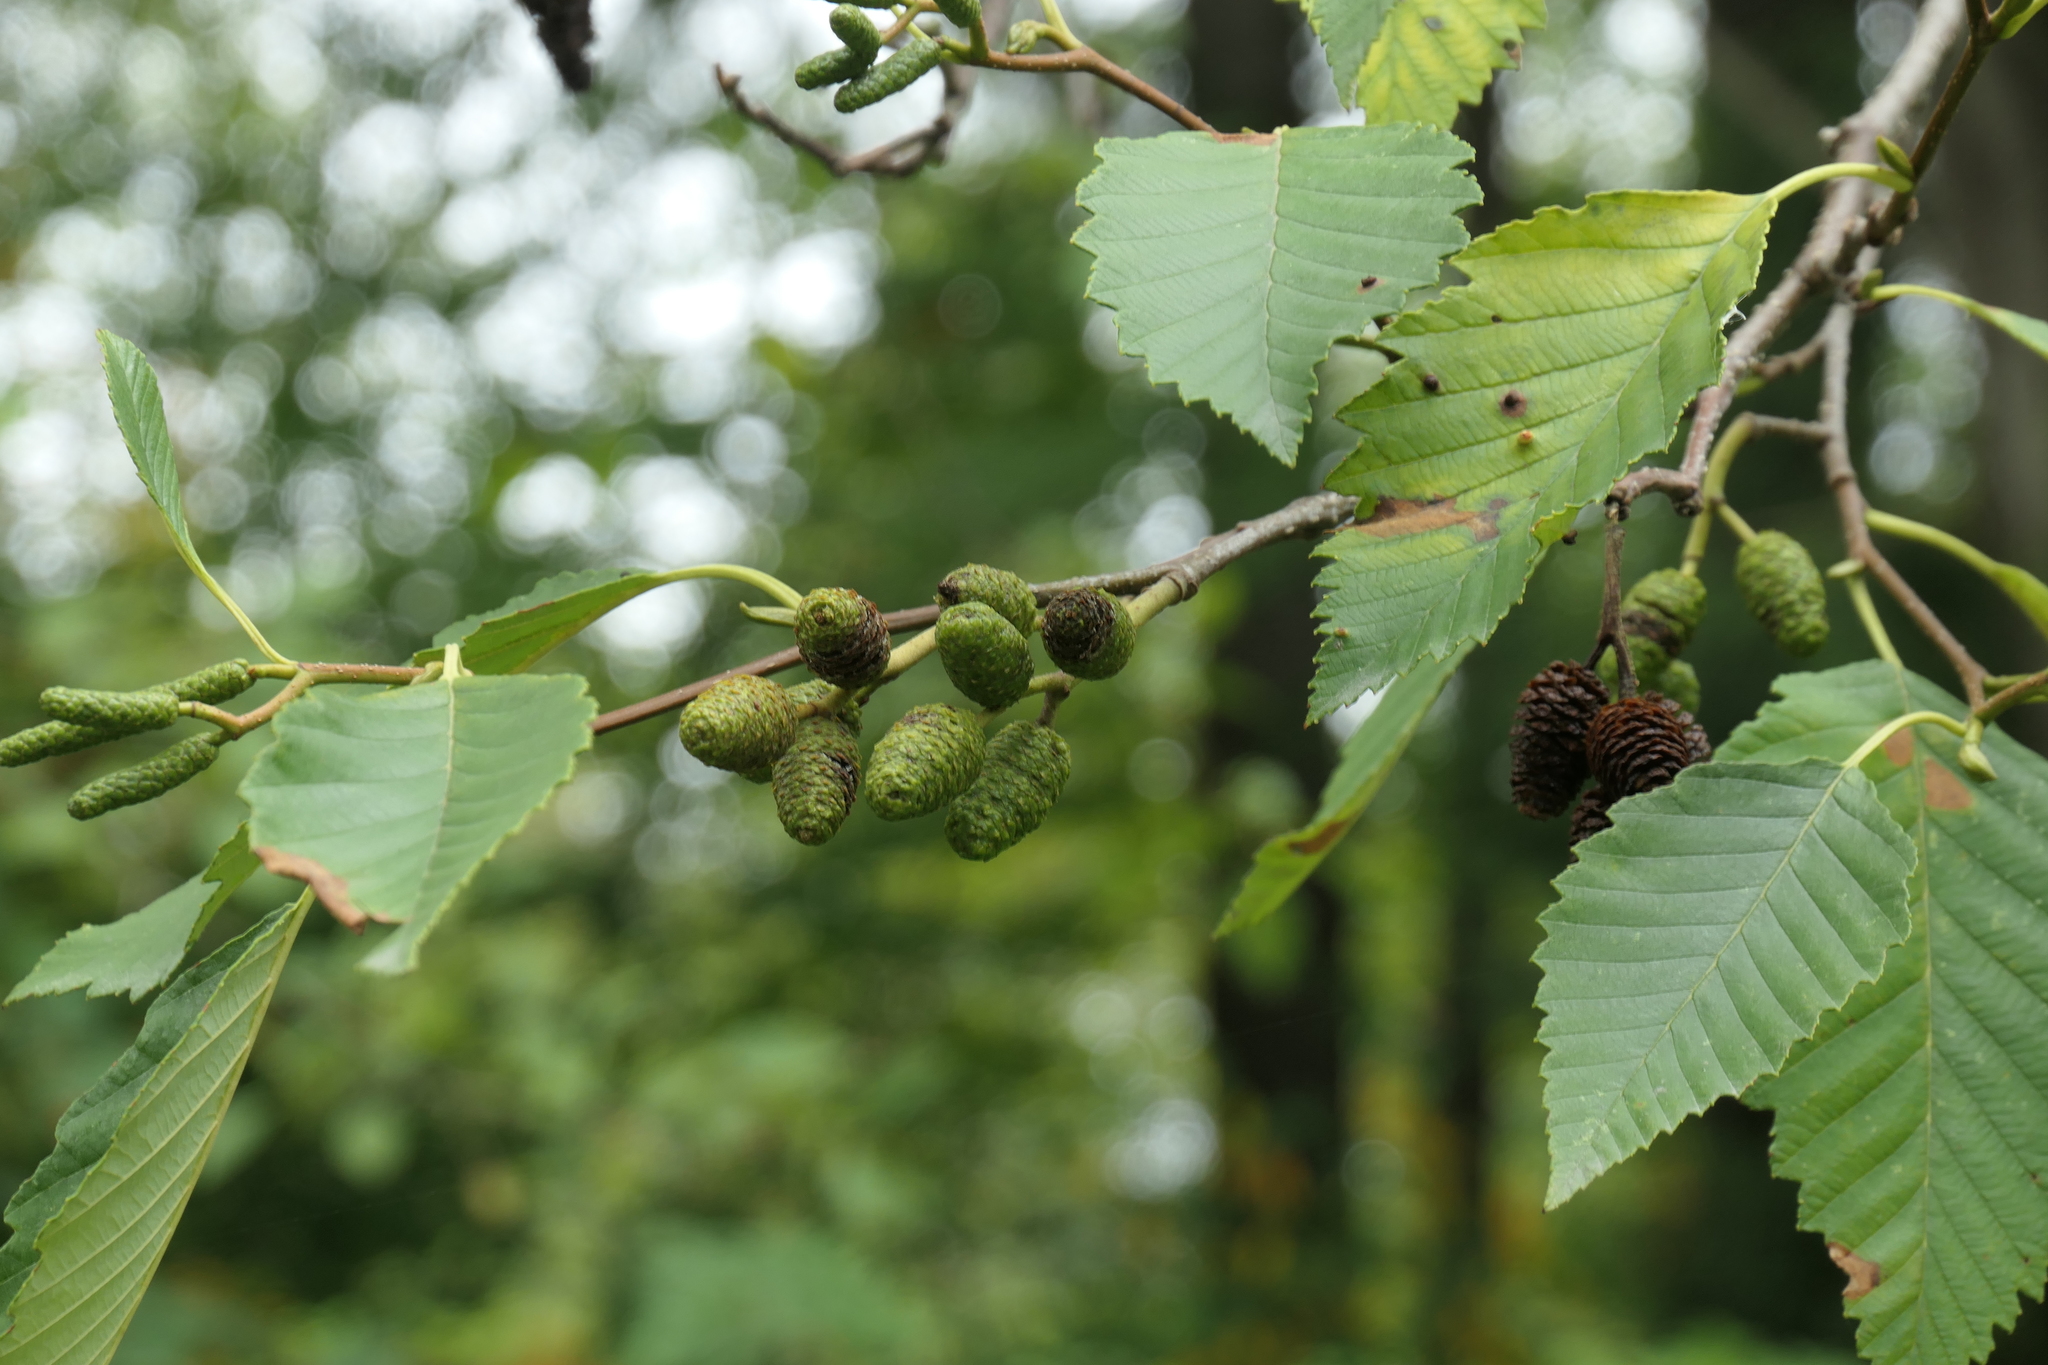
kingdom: Plantae
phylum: Tracheophyta
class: Magnoliopsida
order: Fagales
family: Betulaceae
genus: Alnus
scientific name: Alnus rubra
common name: Red alder
